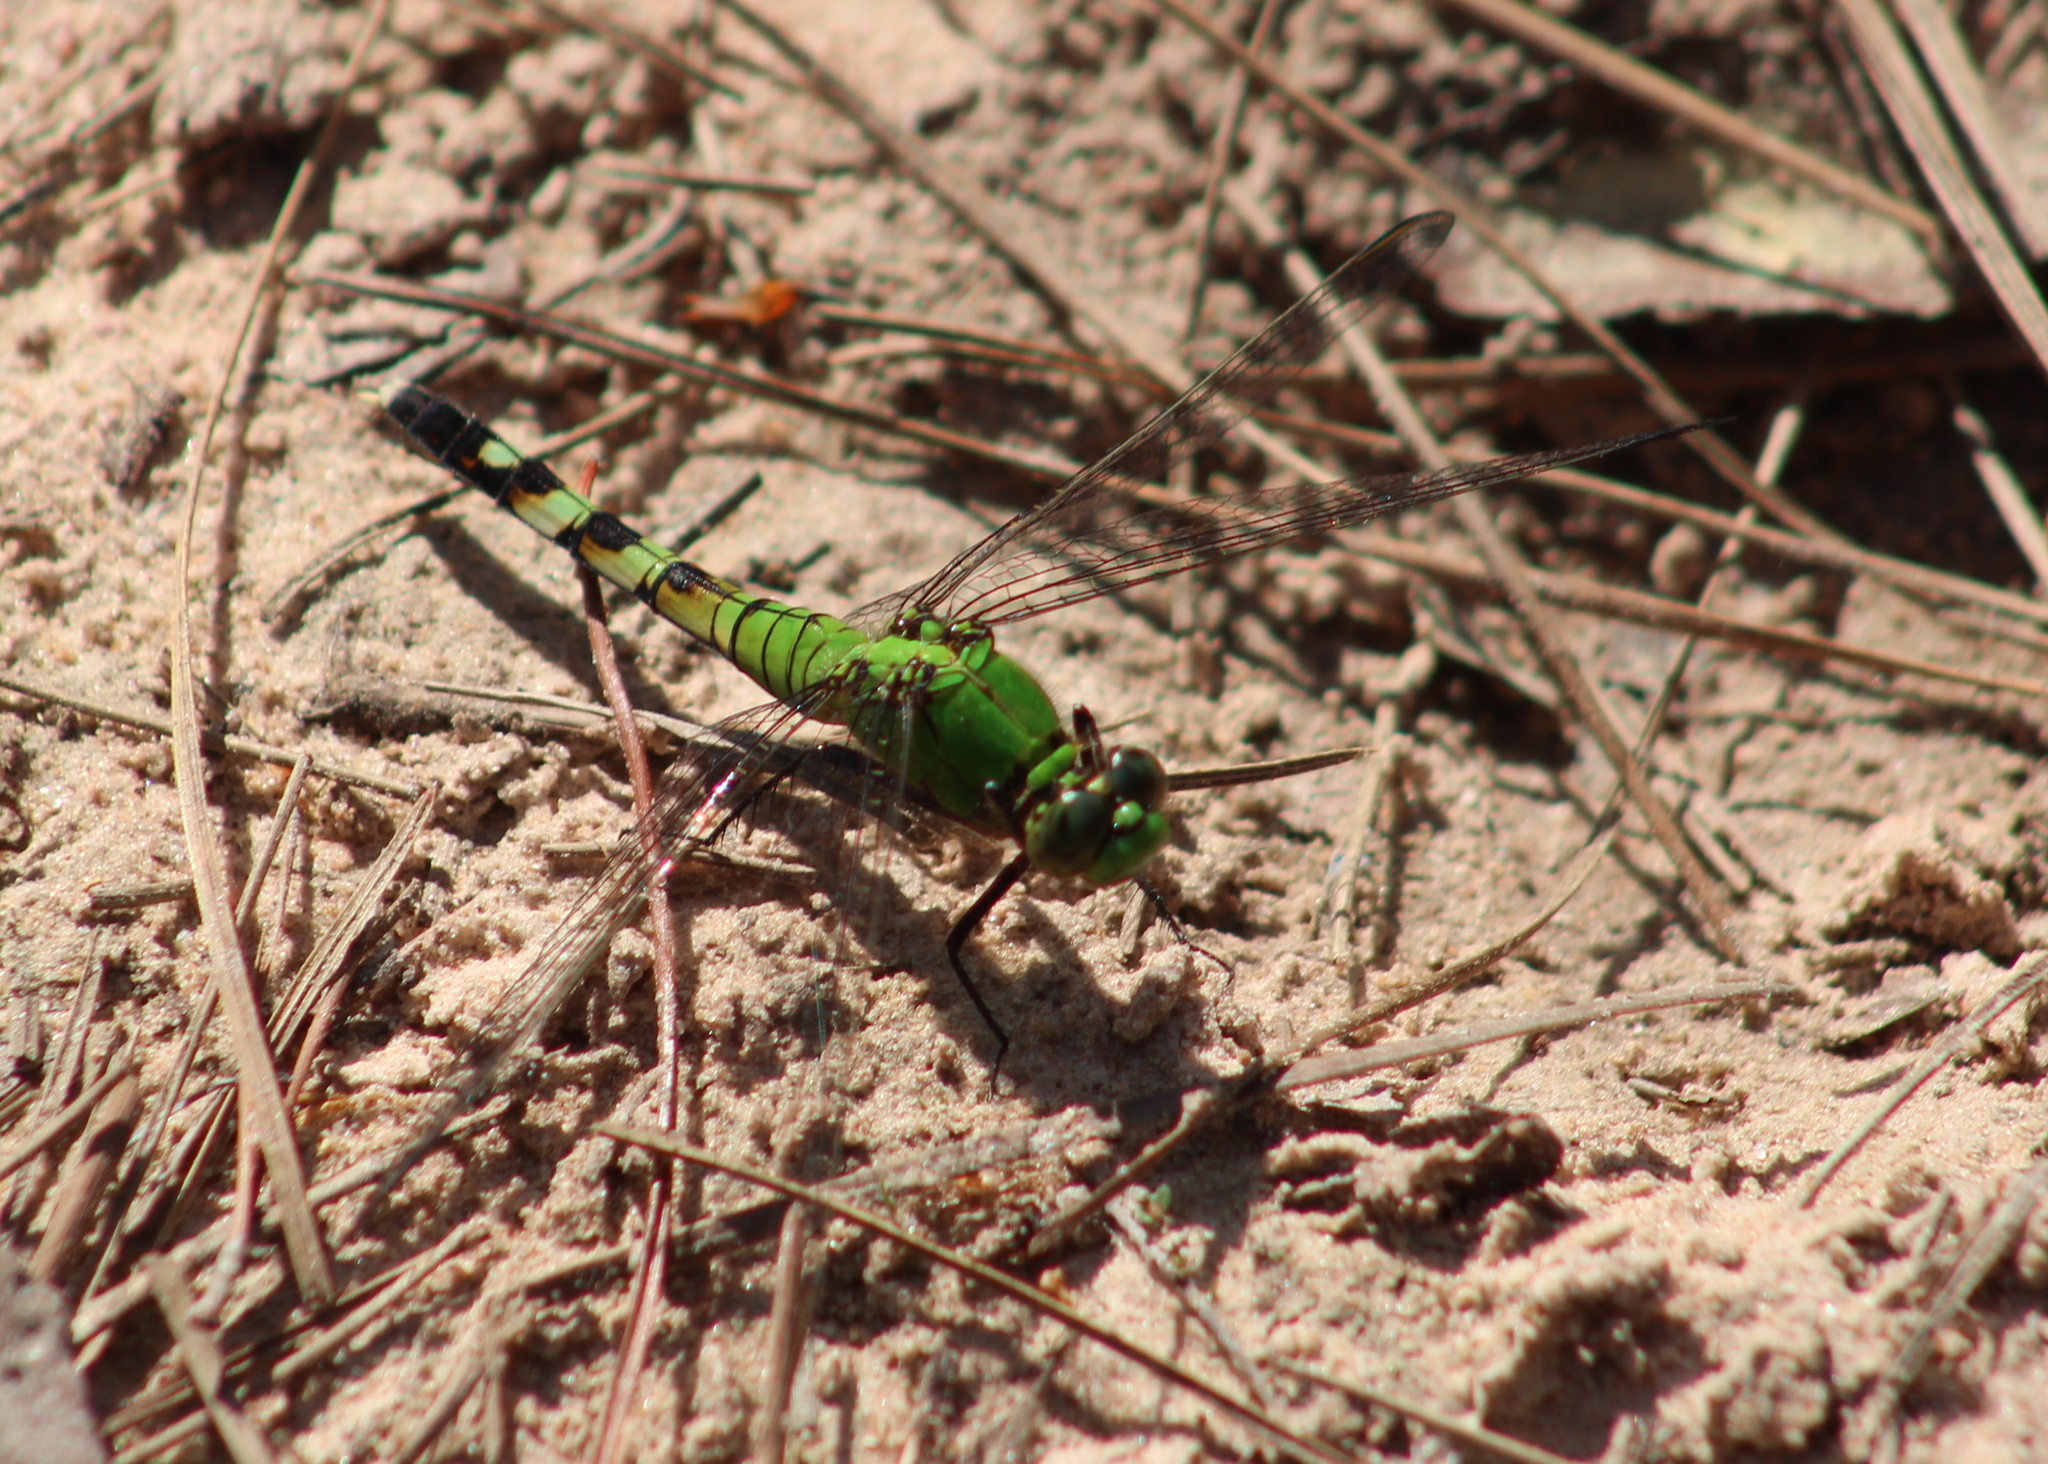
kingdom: Animalia
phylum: Arthropoda
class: Insecta
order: Odonata
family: Libellulidae
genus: Erythemis
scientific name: Erythemis simplicicollis
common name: Eastern pondhawk
